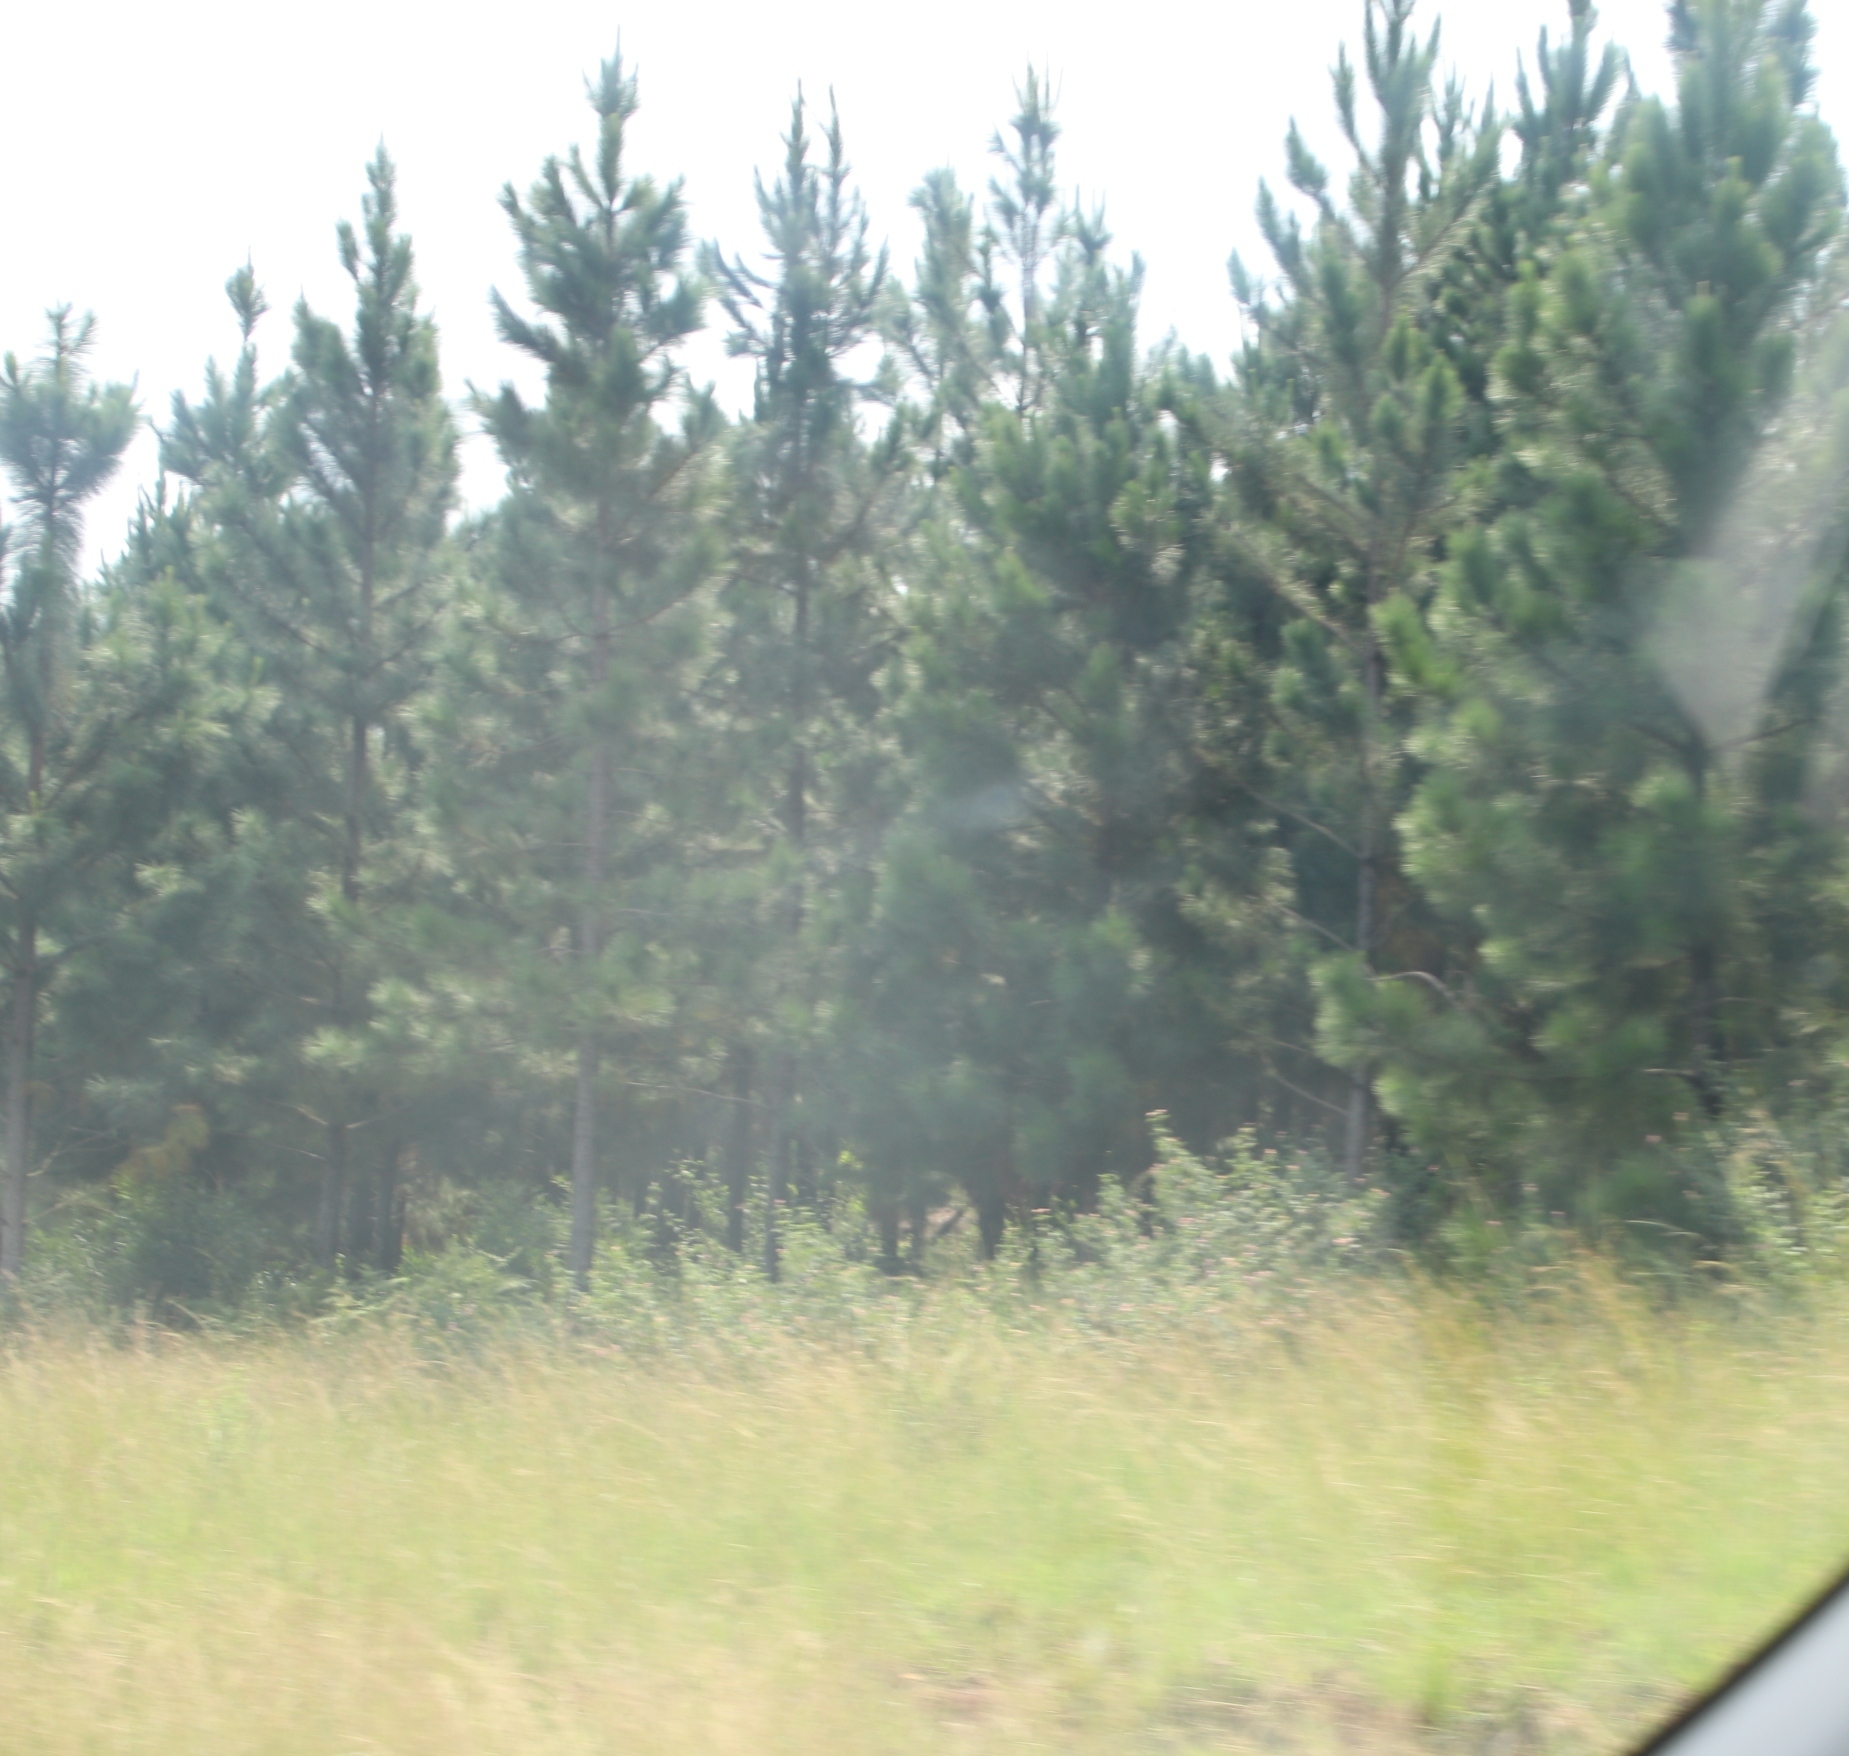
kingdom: Plantae
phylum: Tracheophyta
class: Magnoliopsida
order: Lamiales
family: Verbenaceae
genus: Lantana
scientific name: Lantana camara
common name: Lantana
